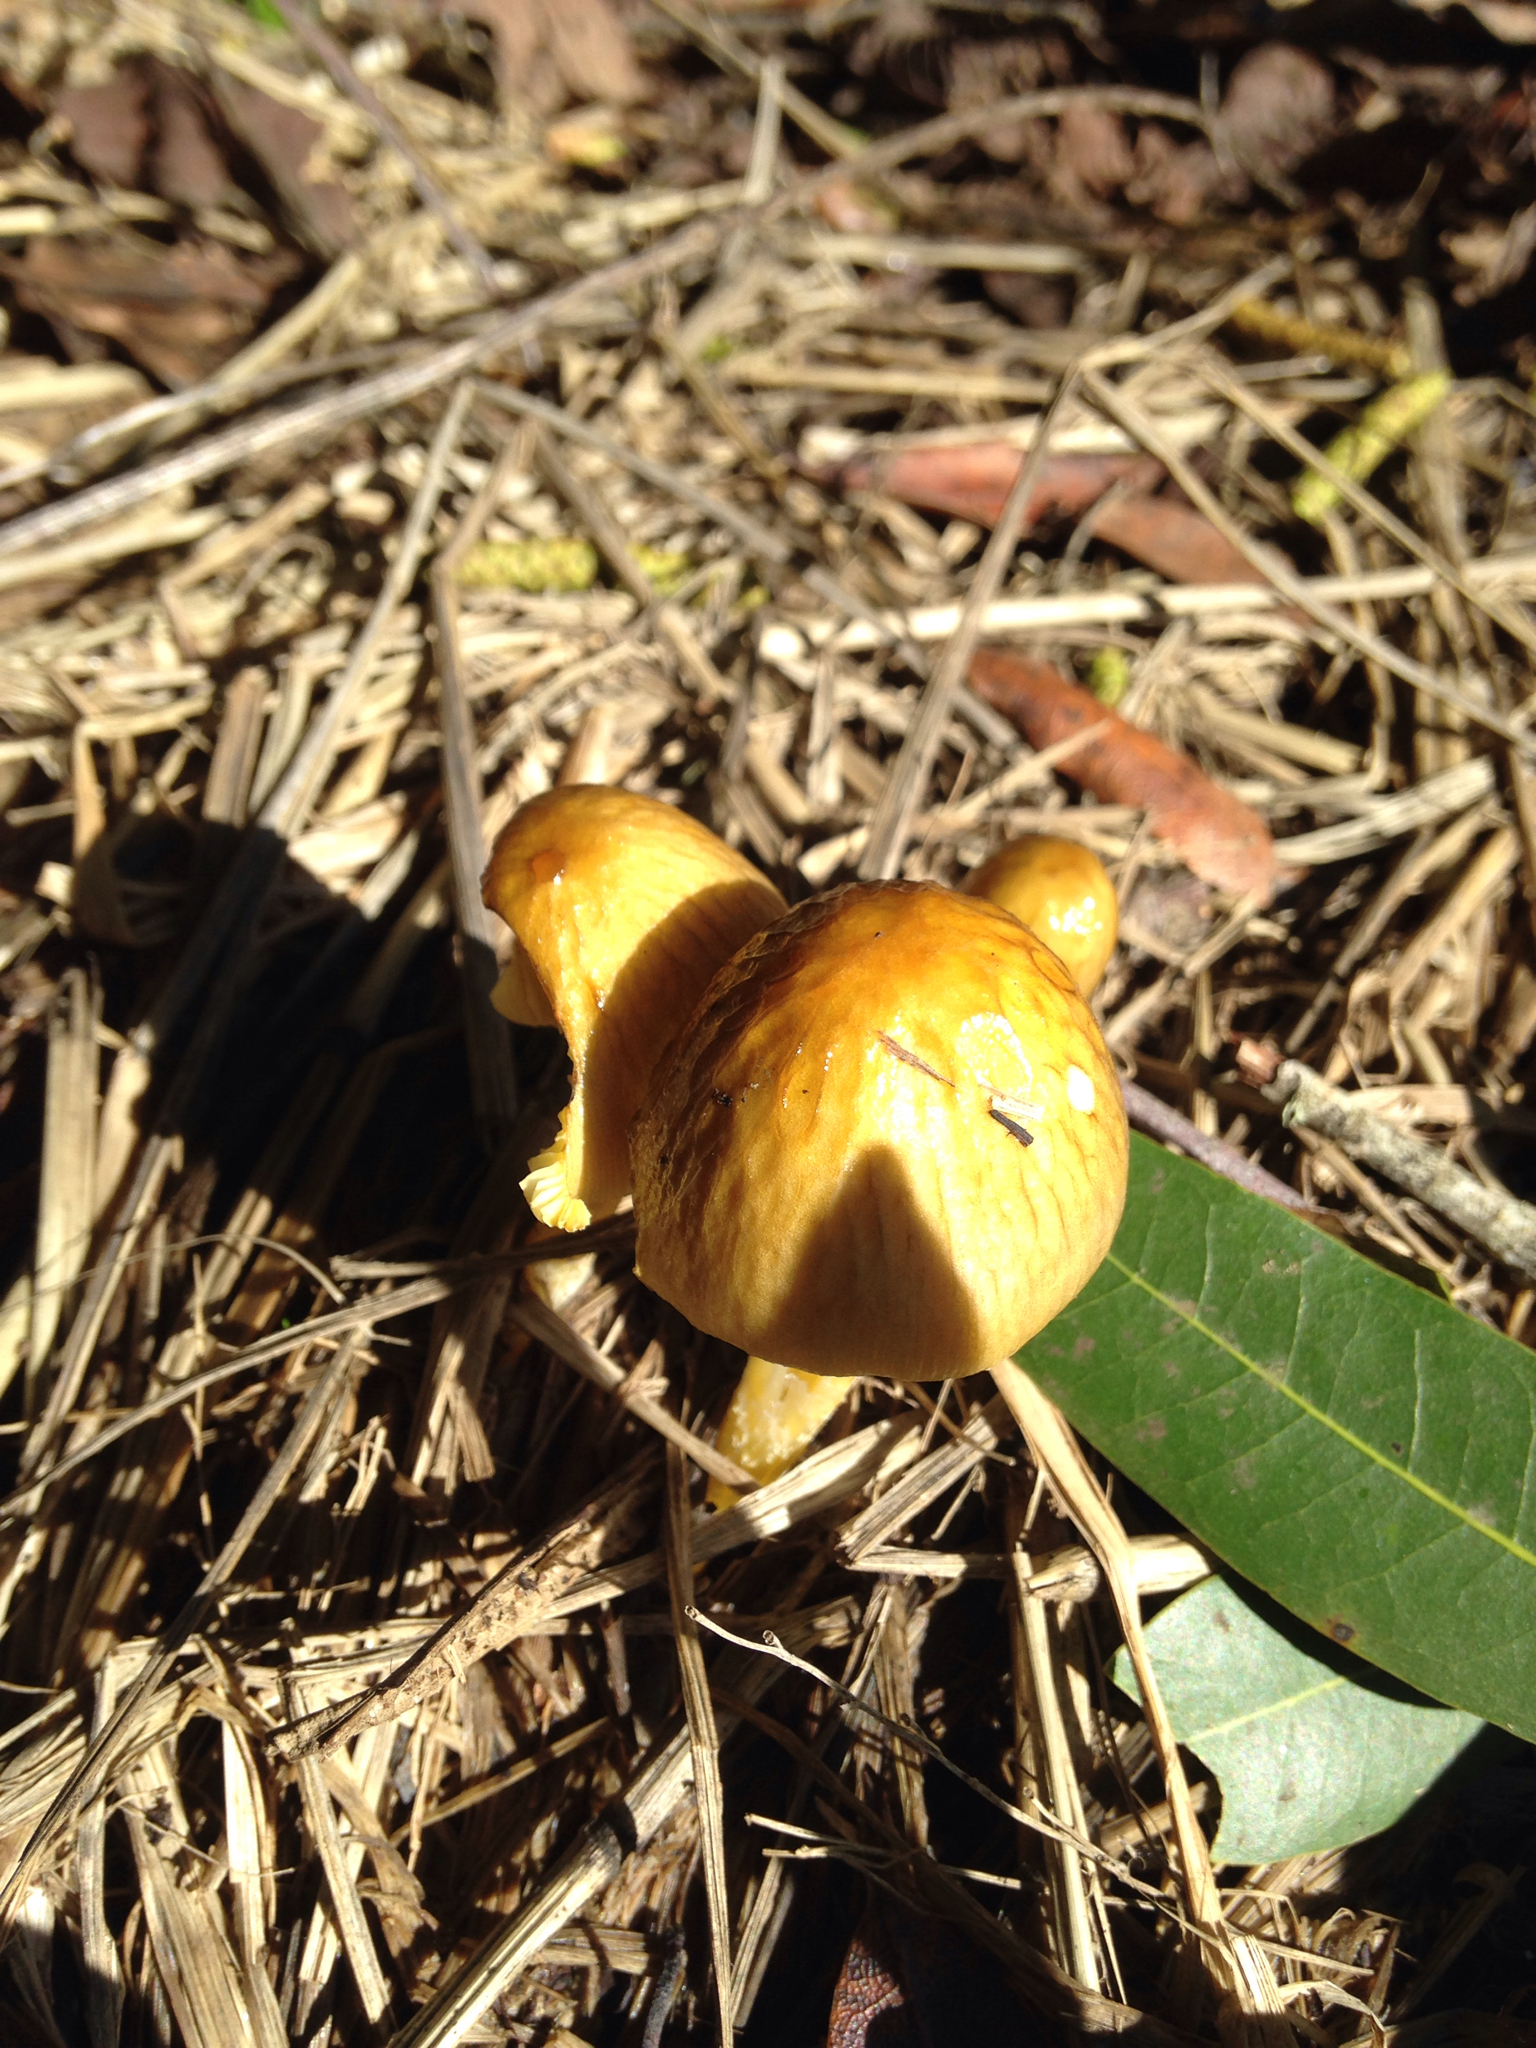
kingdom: Fungi
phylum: Basidiomycota
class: Agaricomycetes
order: Agaricales
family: Bolbitiaceae
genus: Bolbitius
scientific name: Bolbitius titubans
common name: Yellow fieldcap
